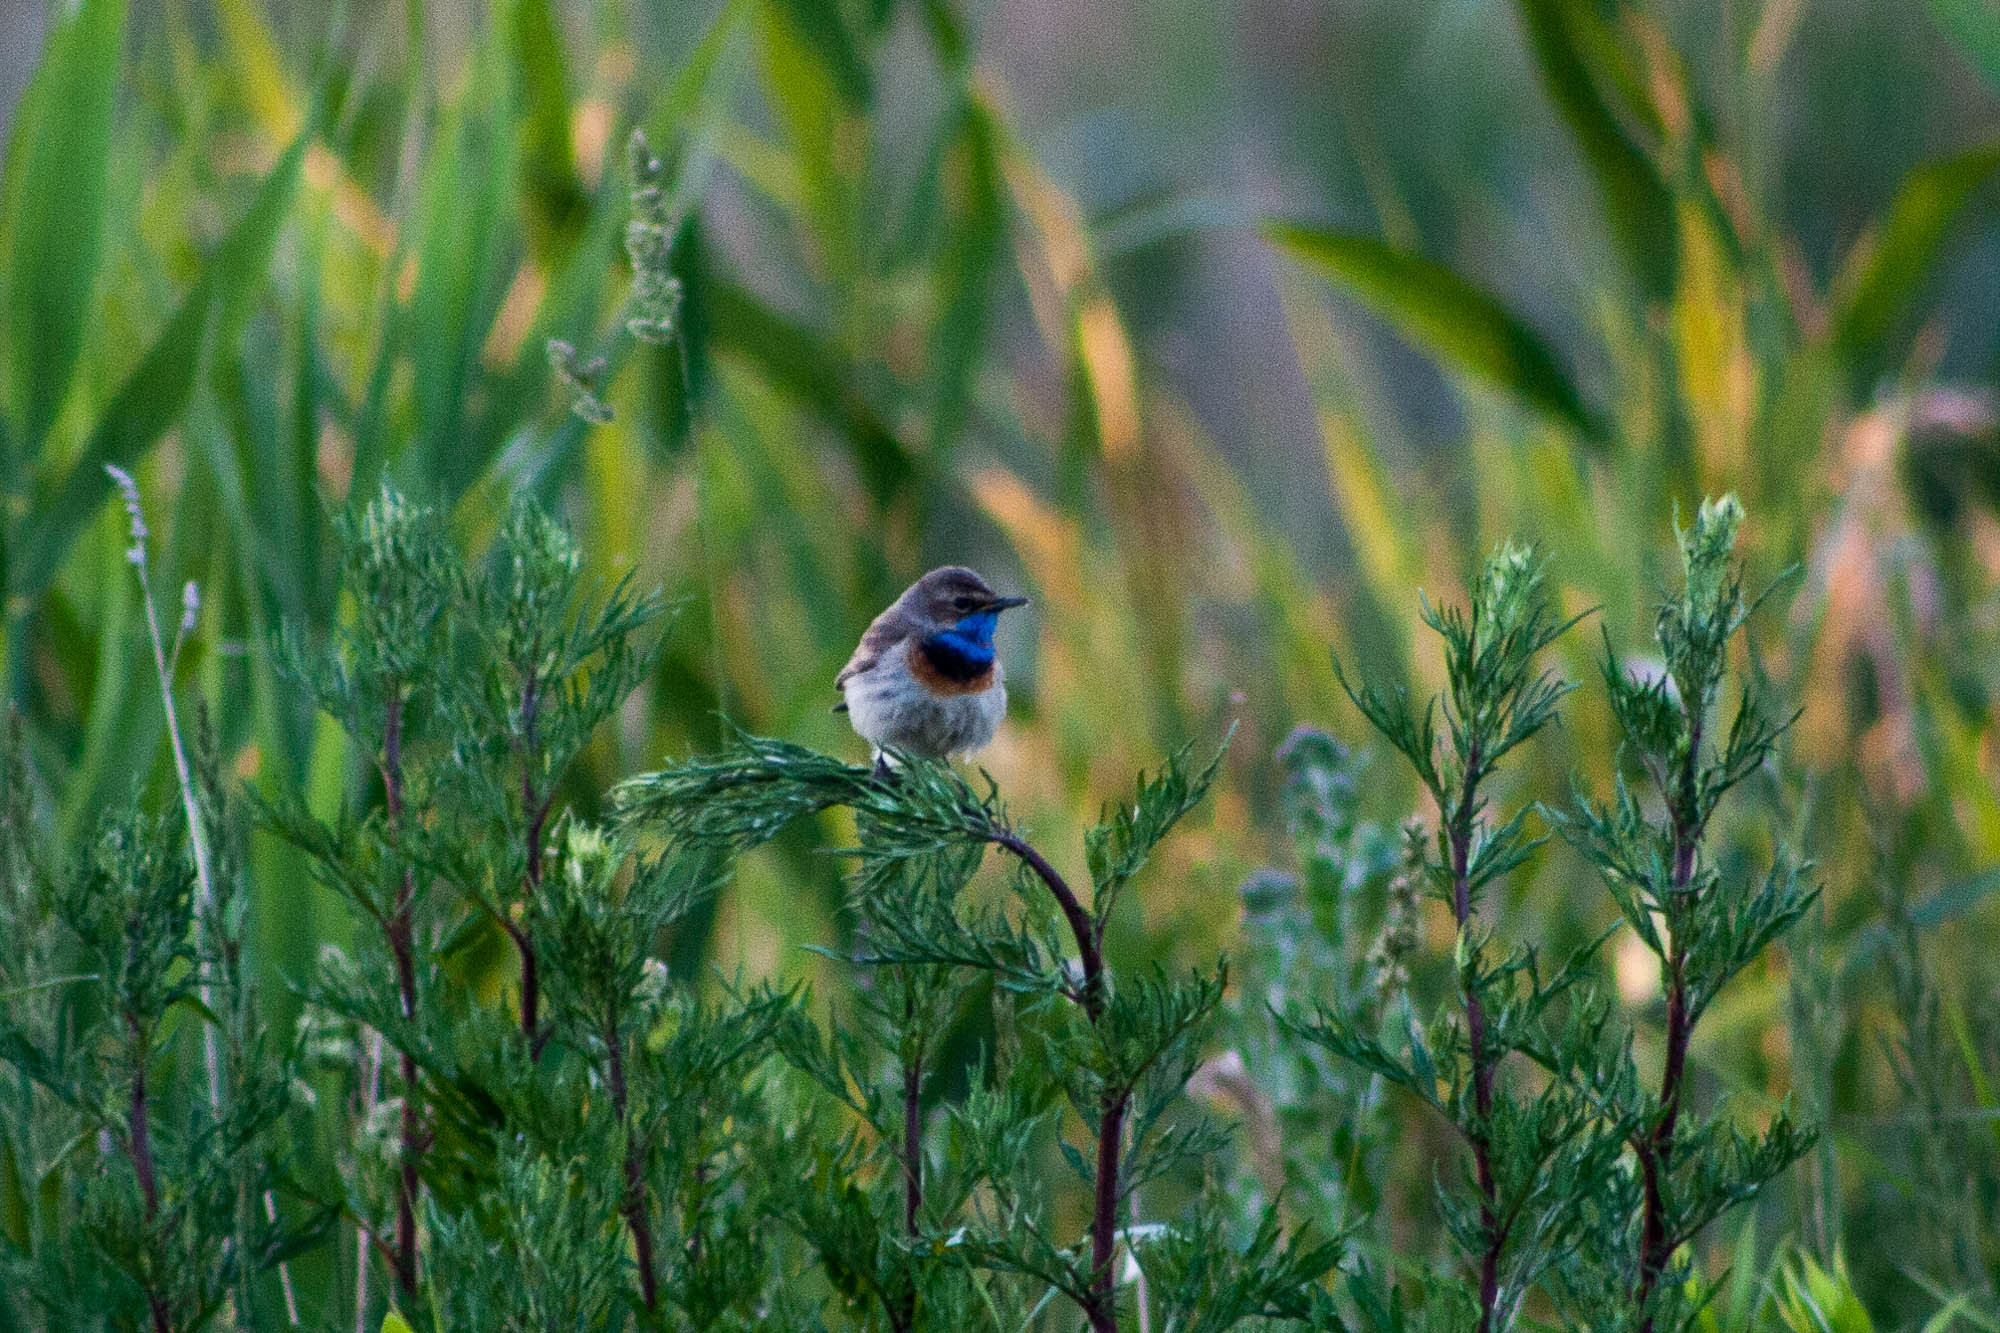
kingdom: Animalia
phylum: Chordata
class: Aves
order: Passeriformes
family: Muscicapidae
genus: Luscinia
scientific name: Luscinia svecica
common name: Bluethroat
